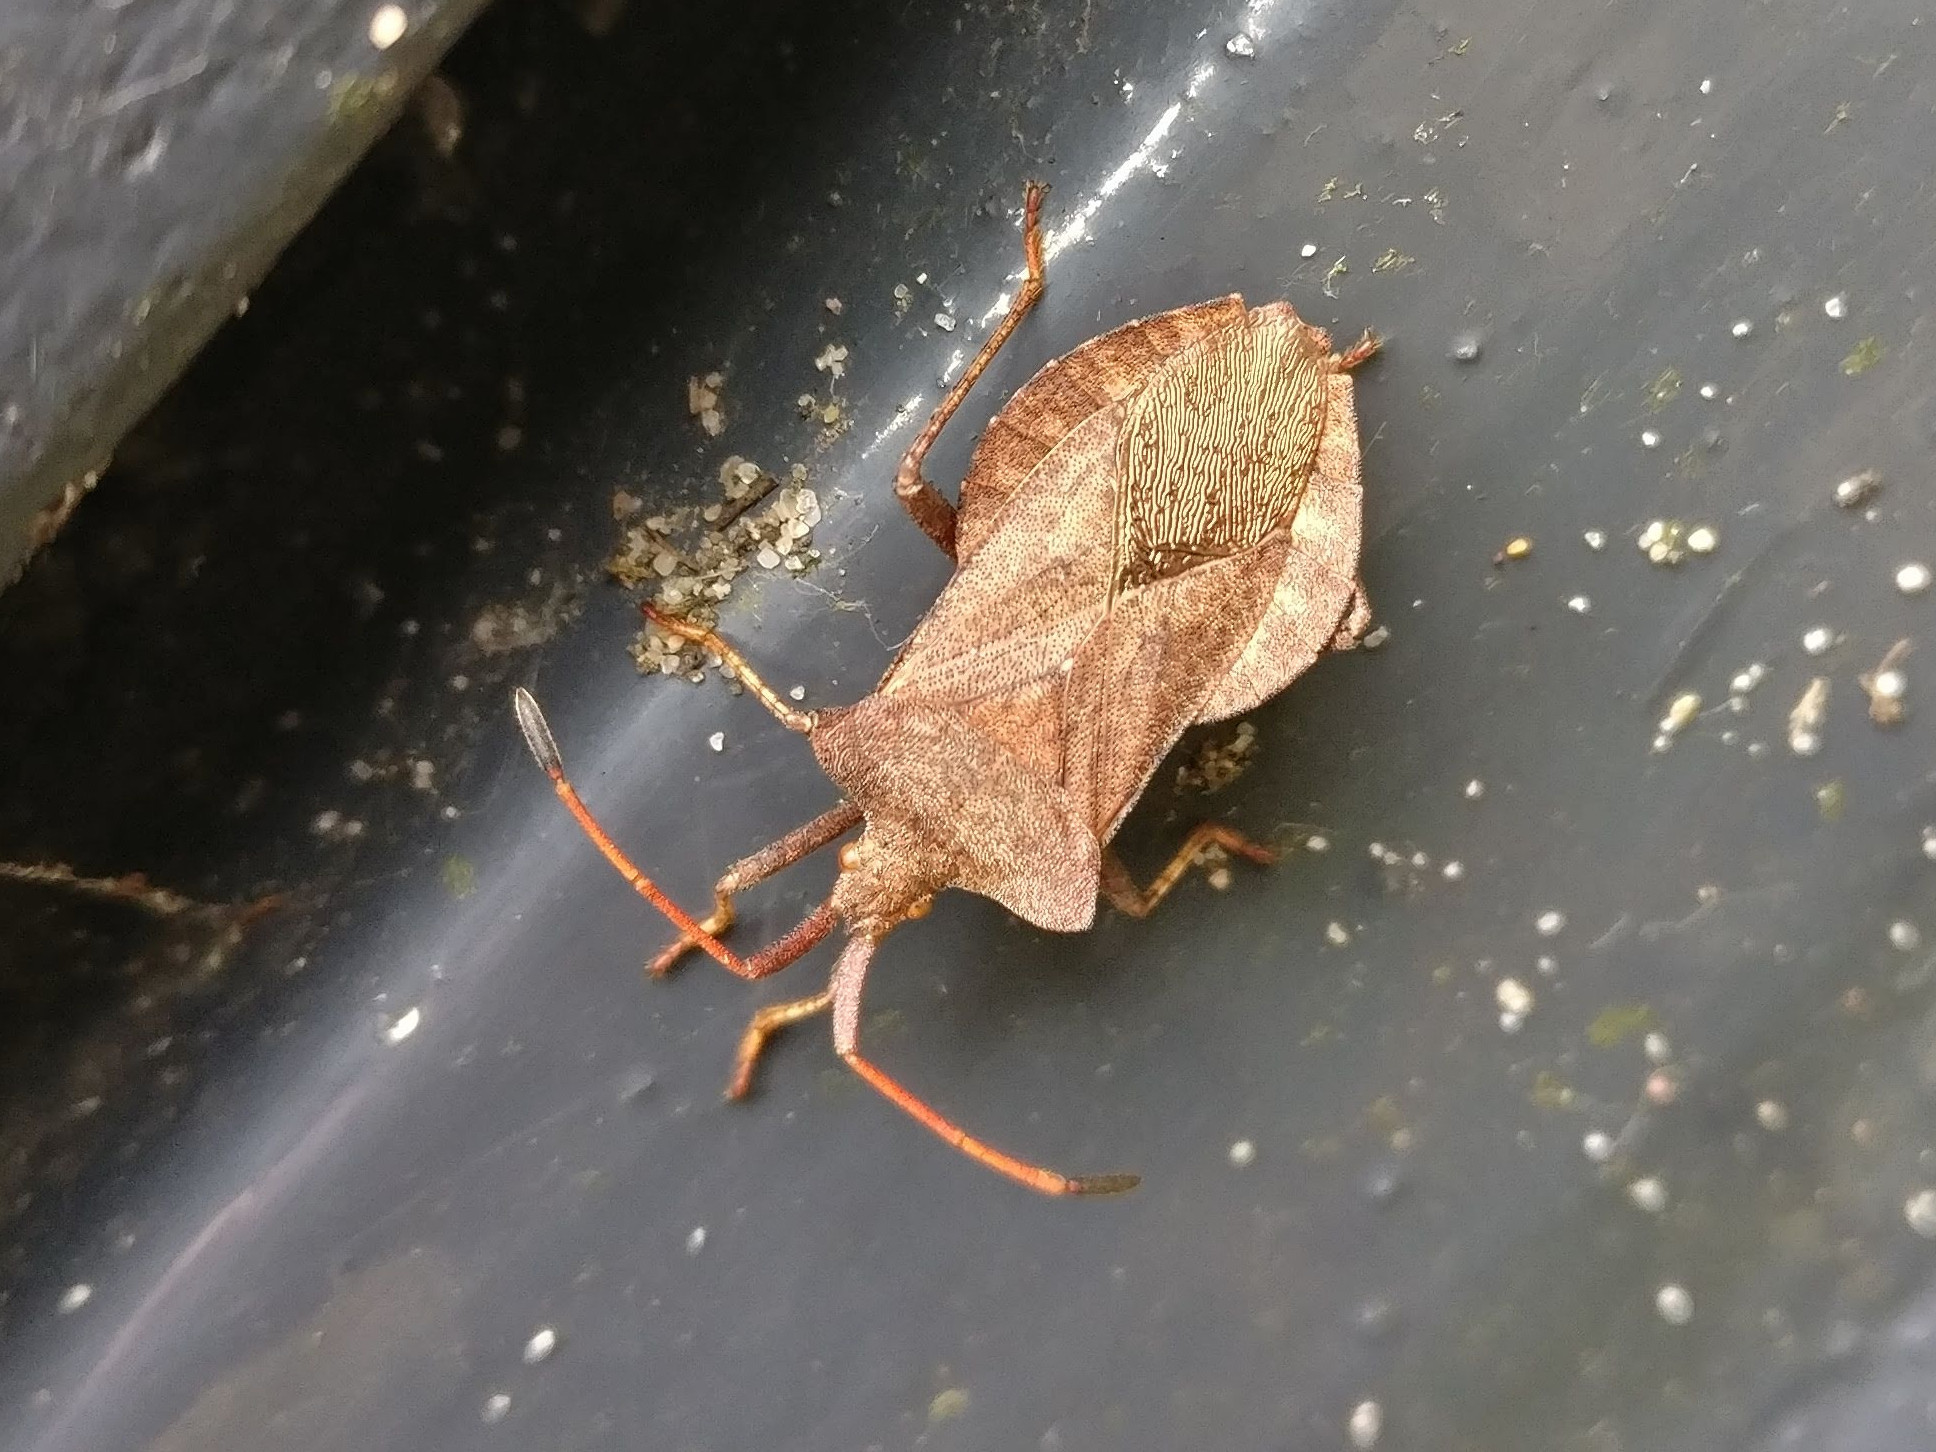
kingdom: Animalia
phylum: Arthropoda
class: Insecta
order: Hemiptera
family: Coreidae
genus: Coreus
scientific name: Coreus marginatus
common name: Dock bug
